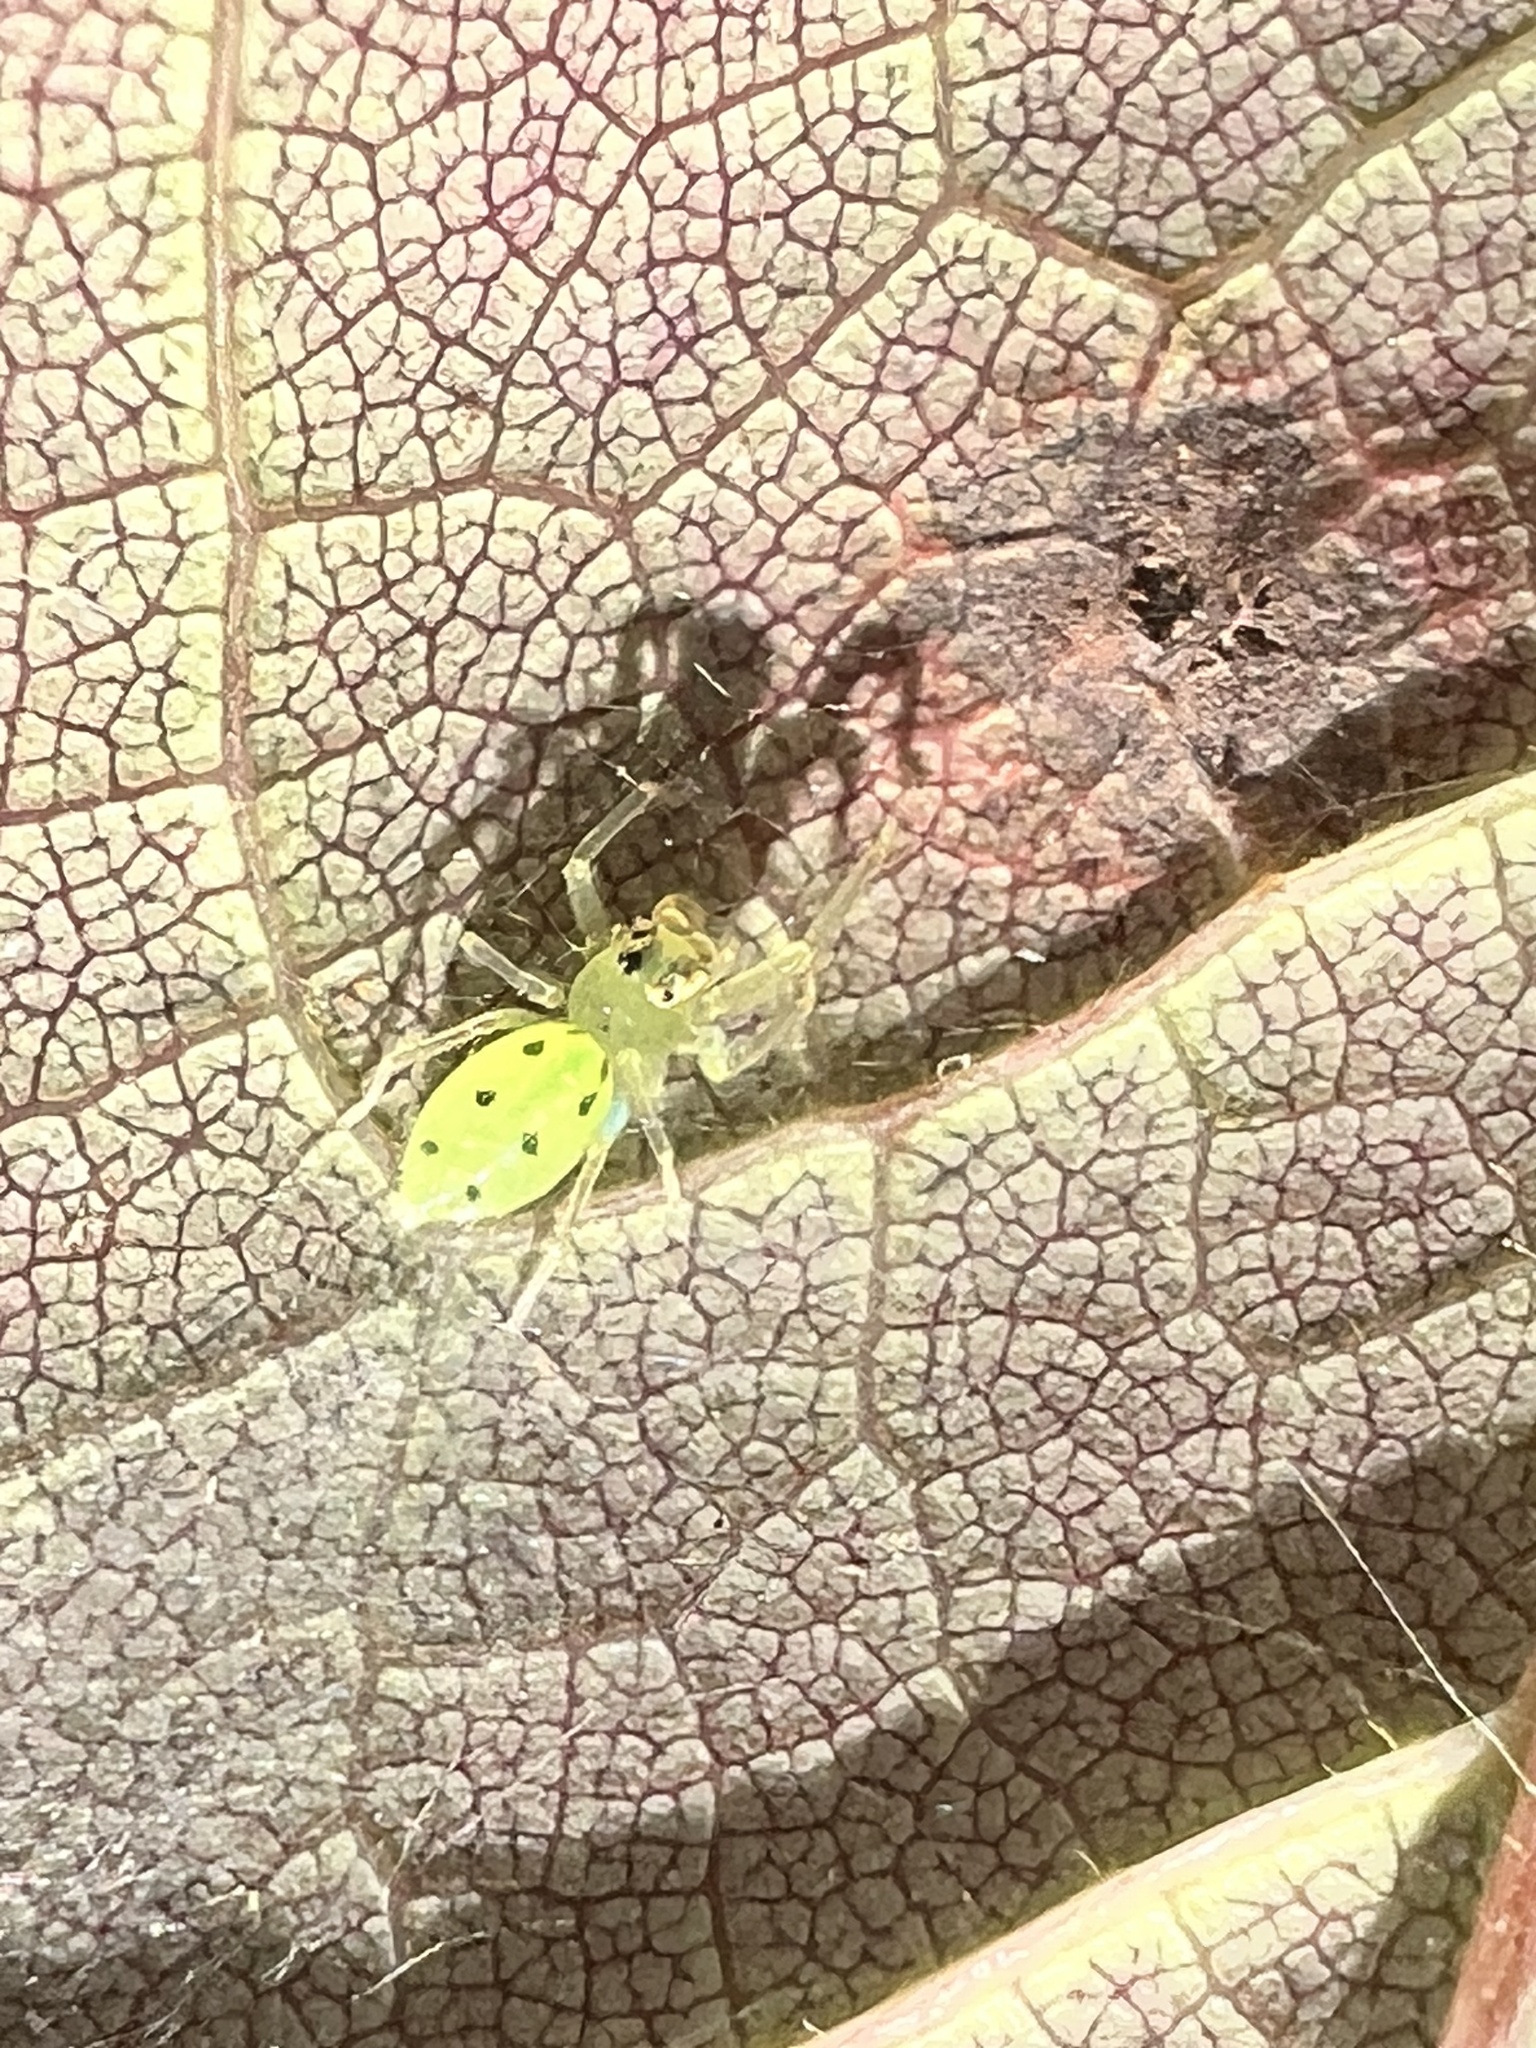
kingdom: Animalia
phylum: Arthropoda
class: Arachnida
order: Araneae
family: Salticidae
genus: Lyssomanes
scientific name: Lyssomanes viridis
